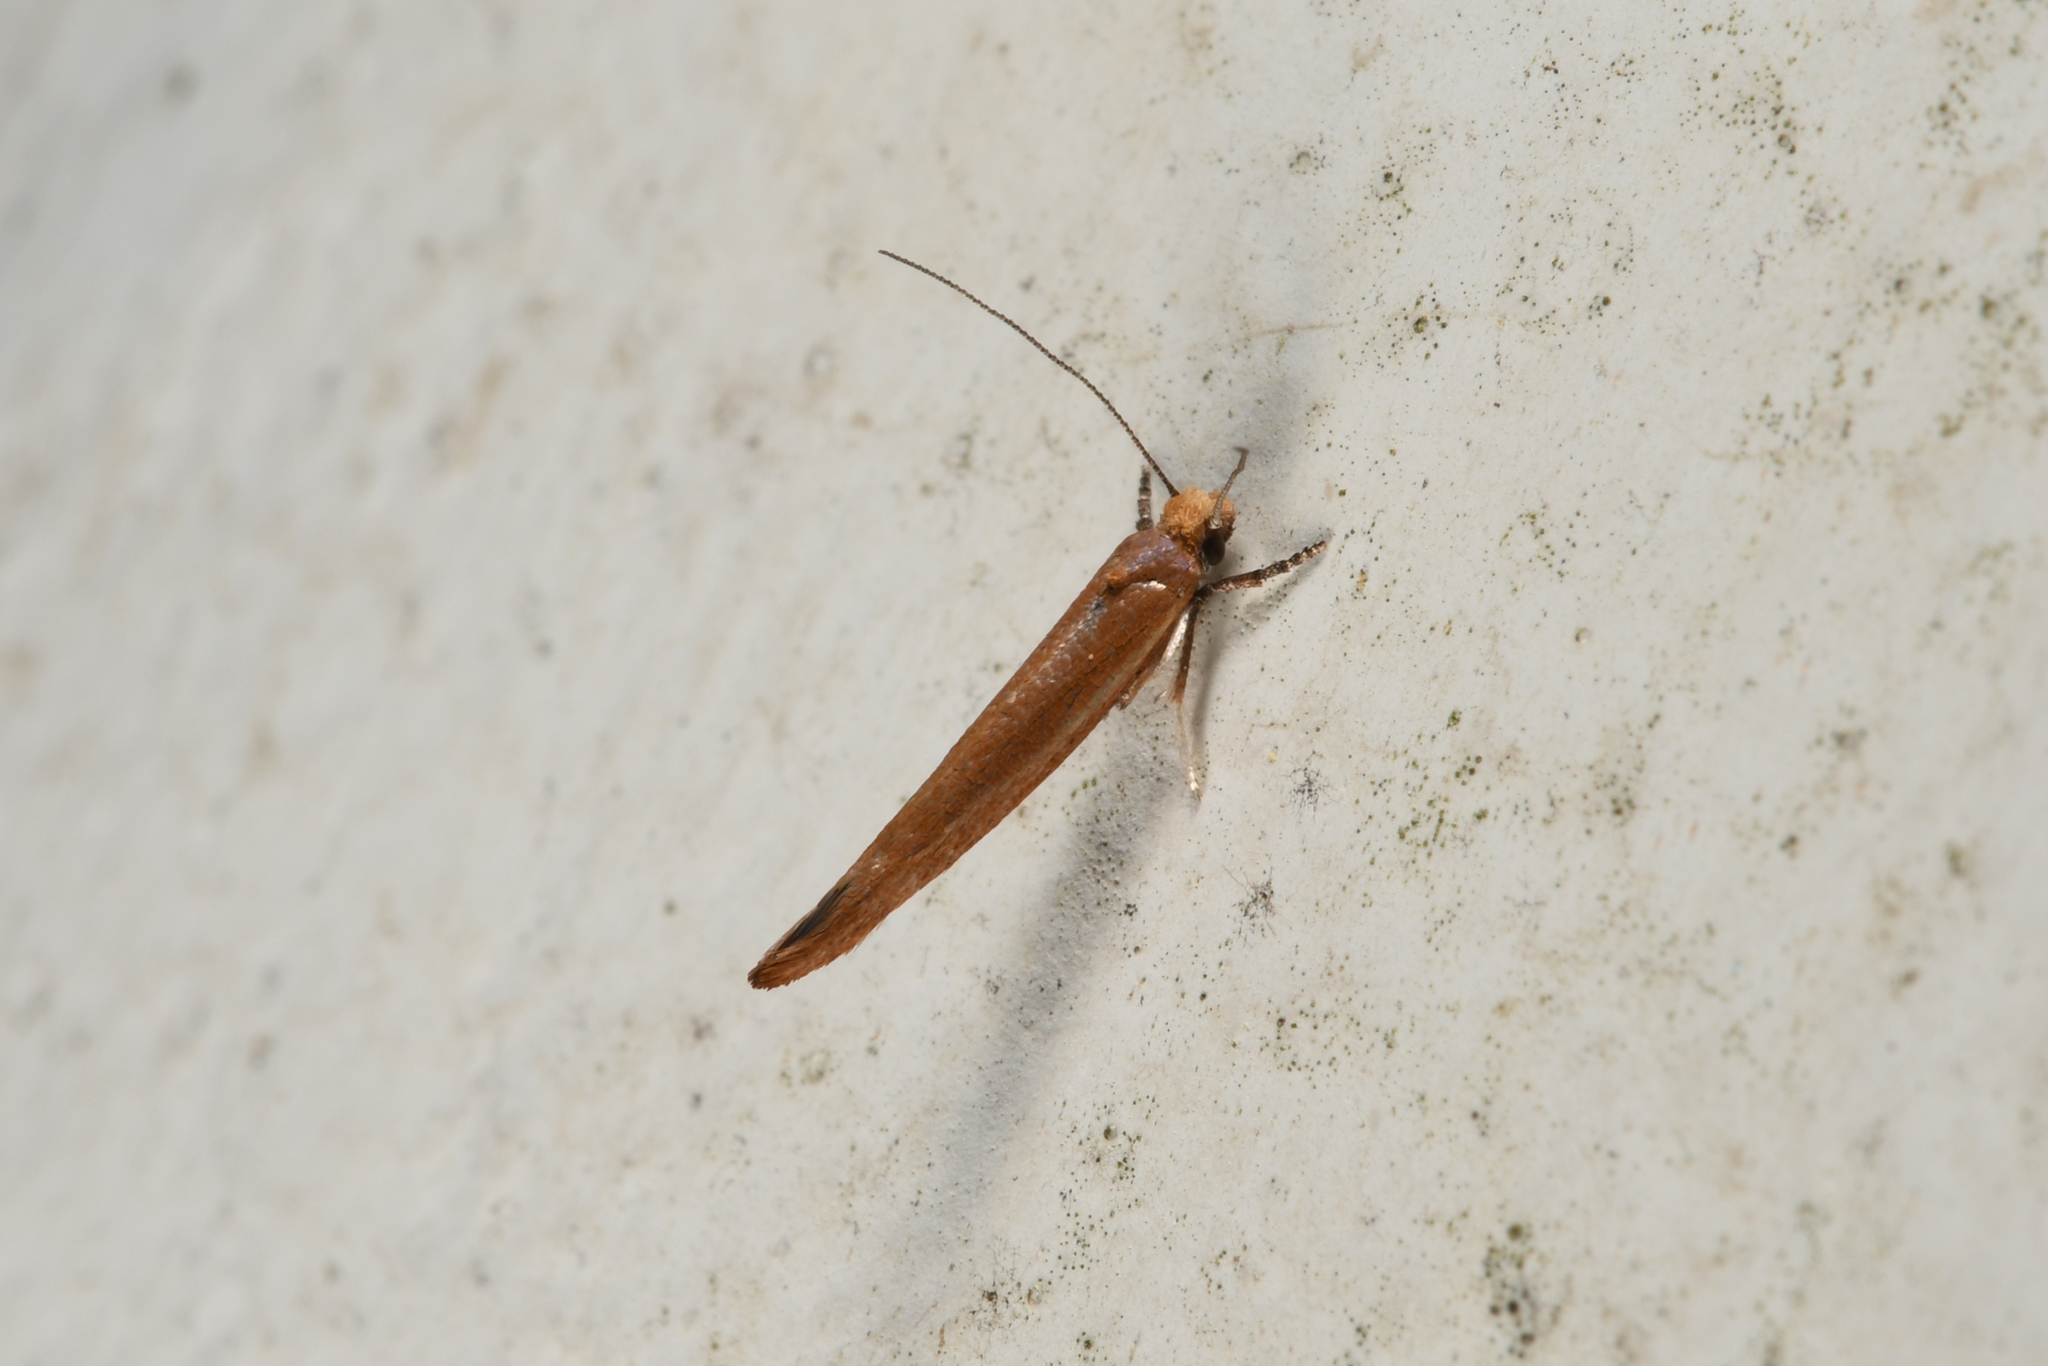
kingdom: Animalia
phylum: Arthropoda
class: Insecta
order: Lepidoptera
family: Yponomeutidae
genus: Zelleria
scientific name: Zelleria hepariella
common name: Brown ash ermine
